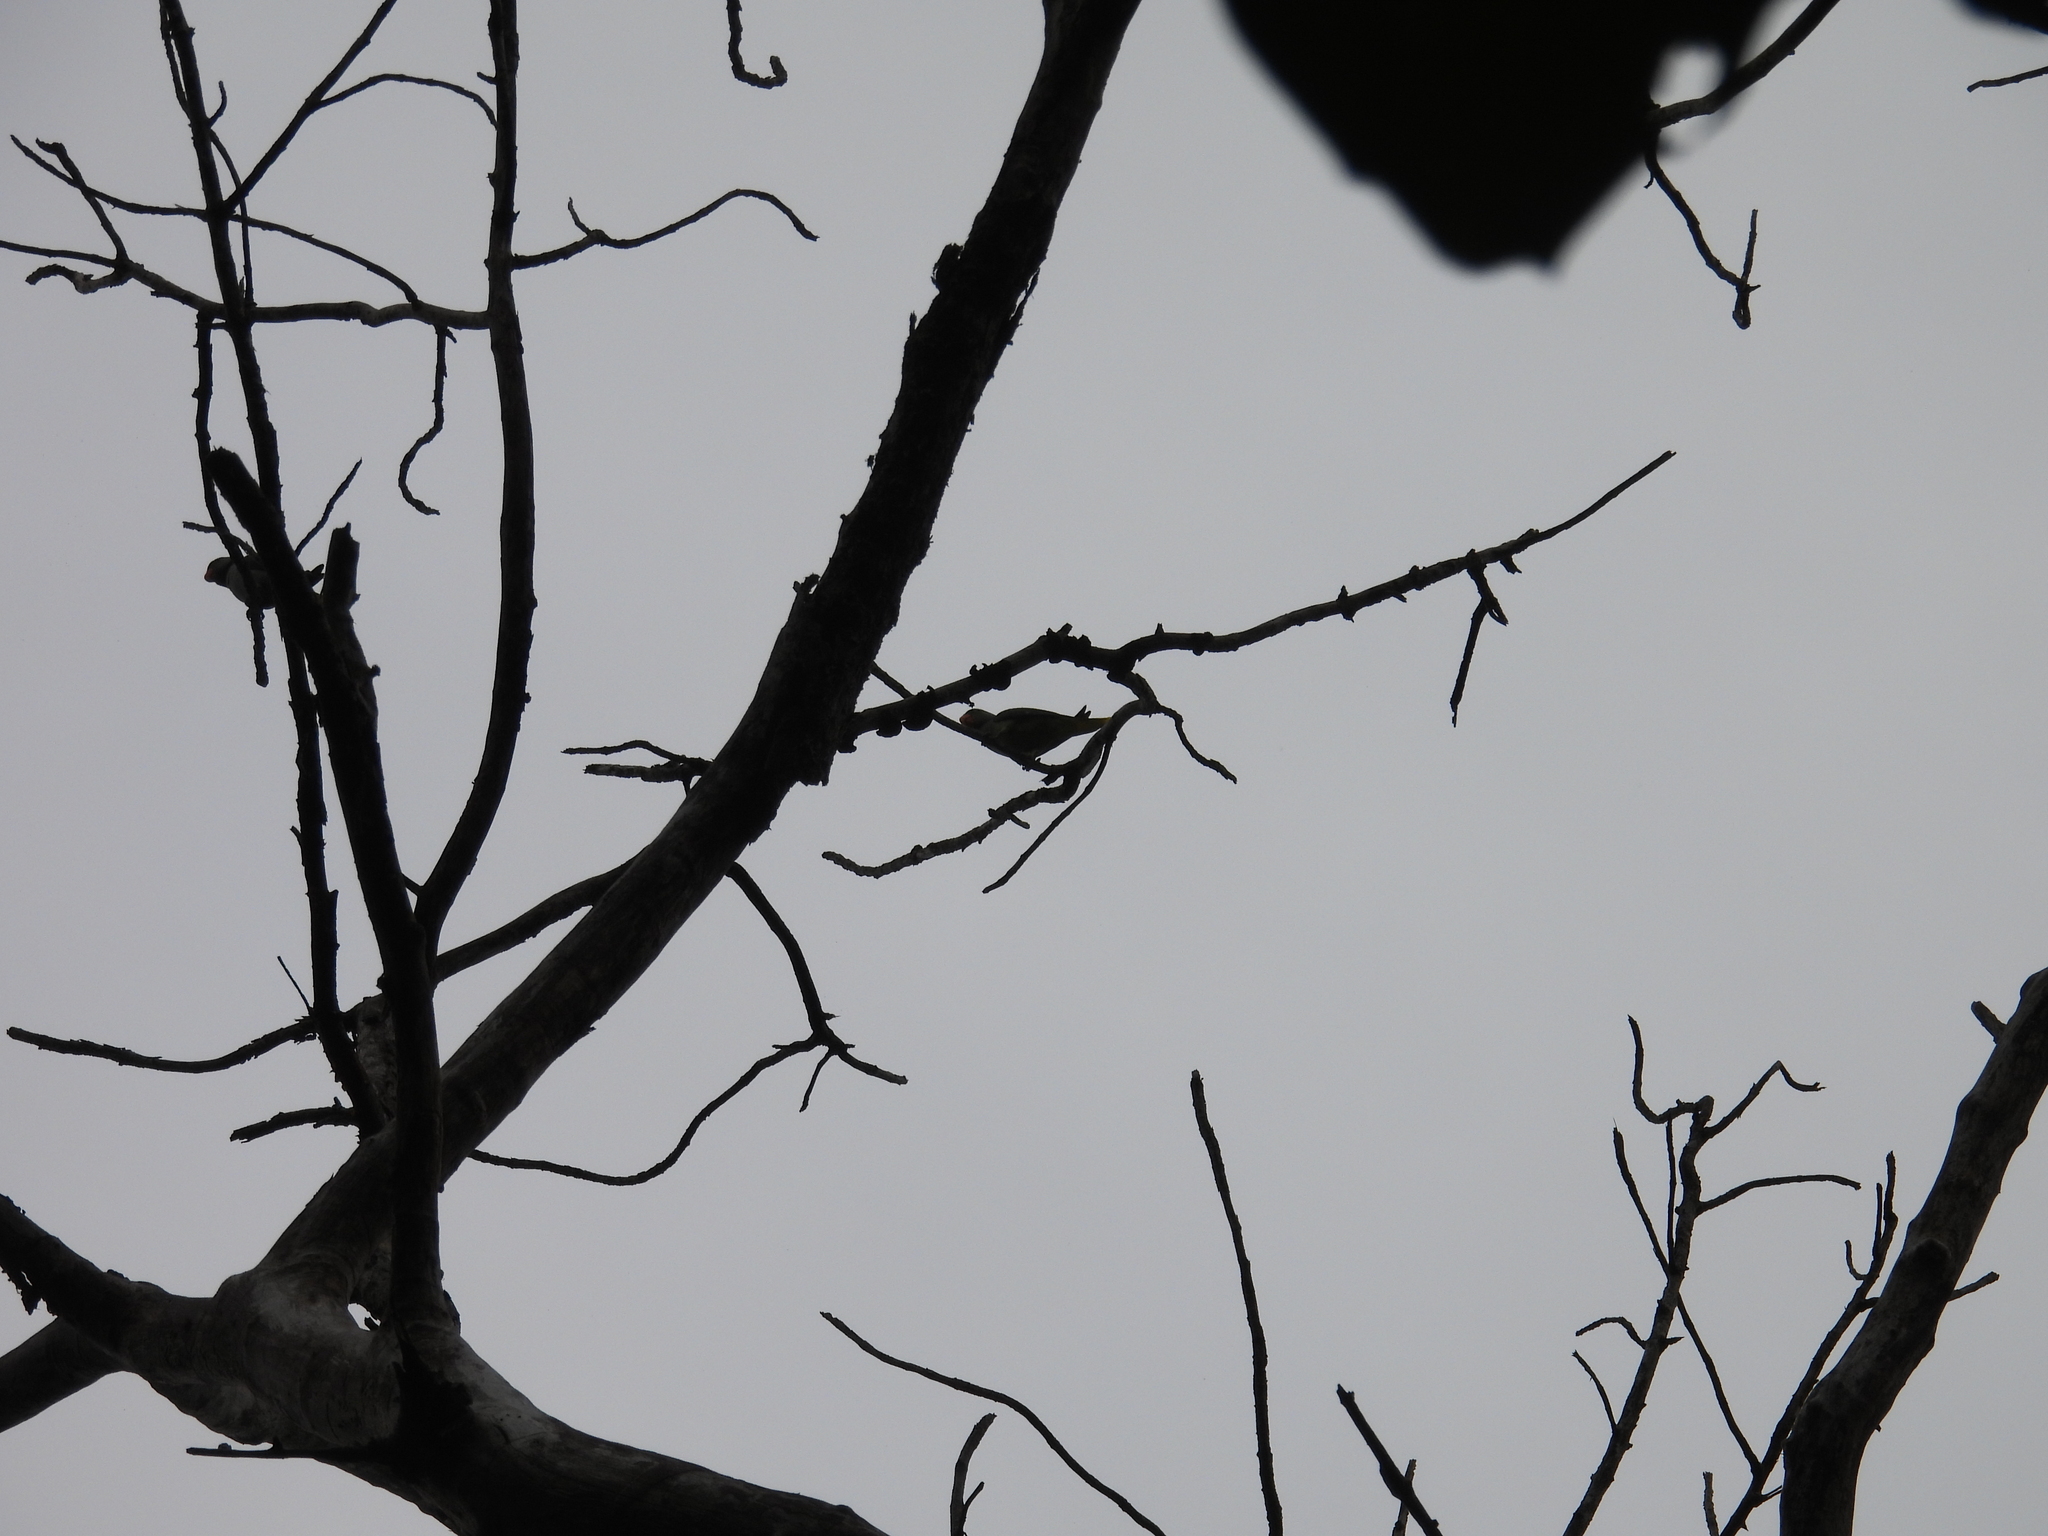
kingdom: Animalia
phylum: Chordata
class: Aves
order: Psittaciformes
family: Psittacidae
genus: Psittacula
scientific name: Psittacula columboides
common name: Blue-winged parakeet
